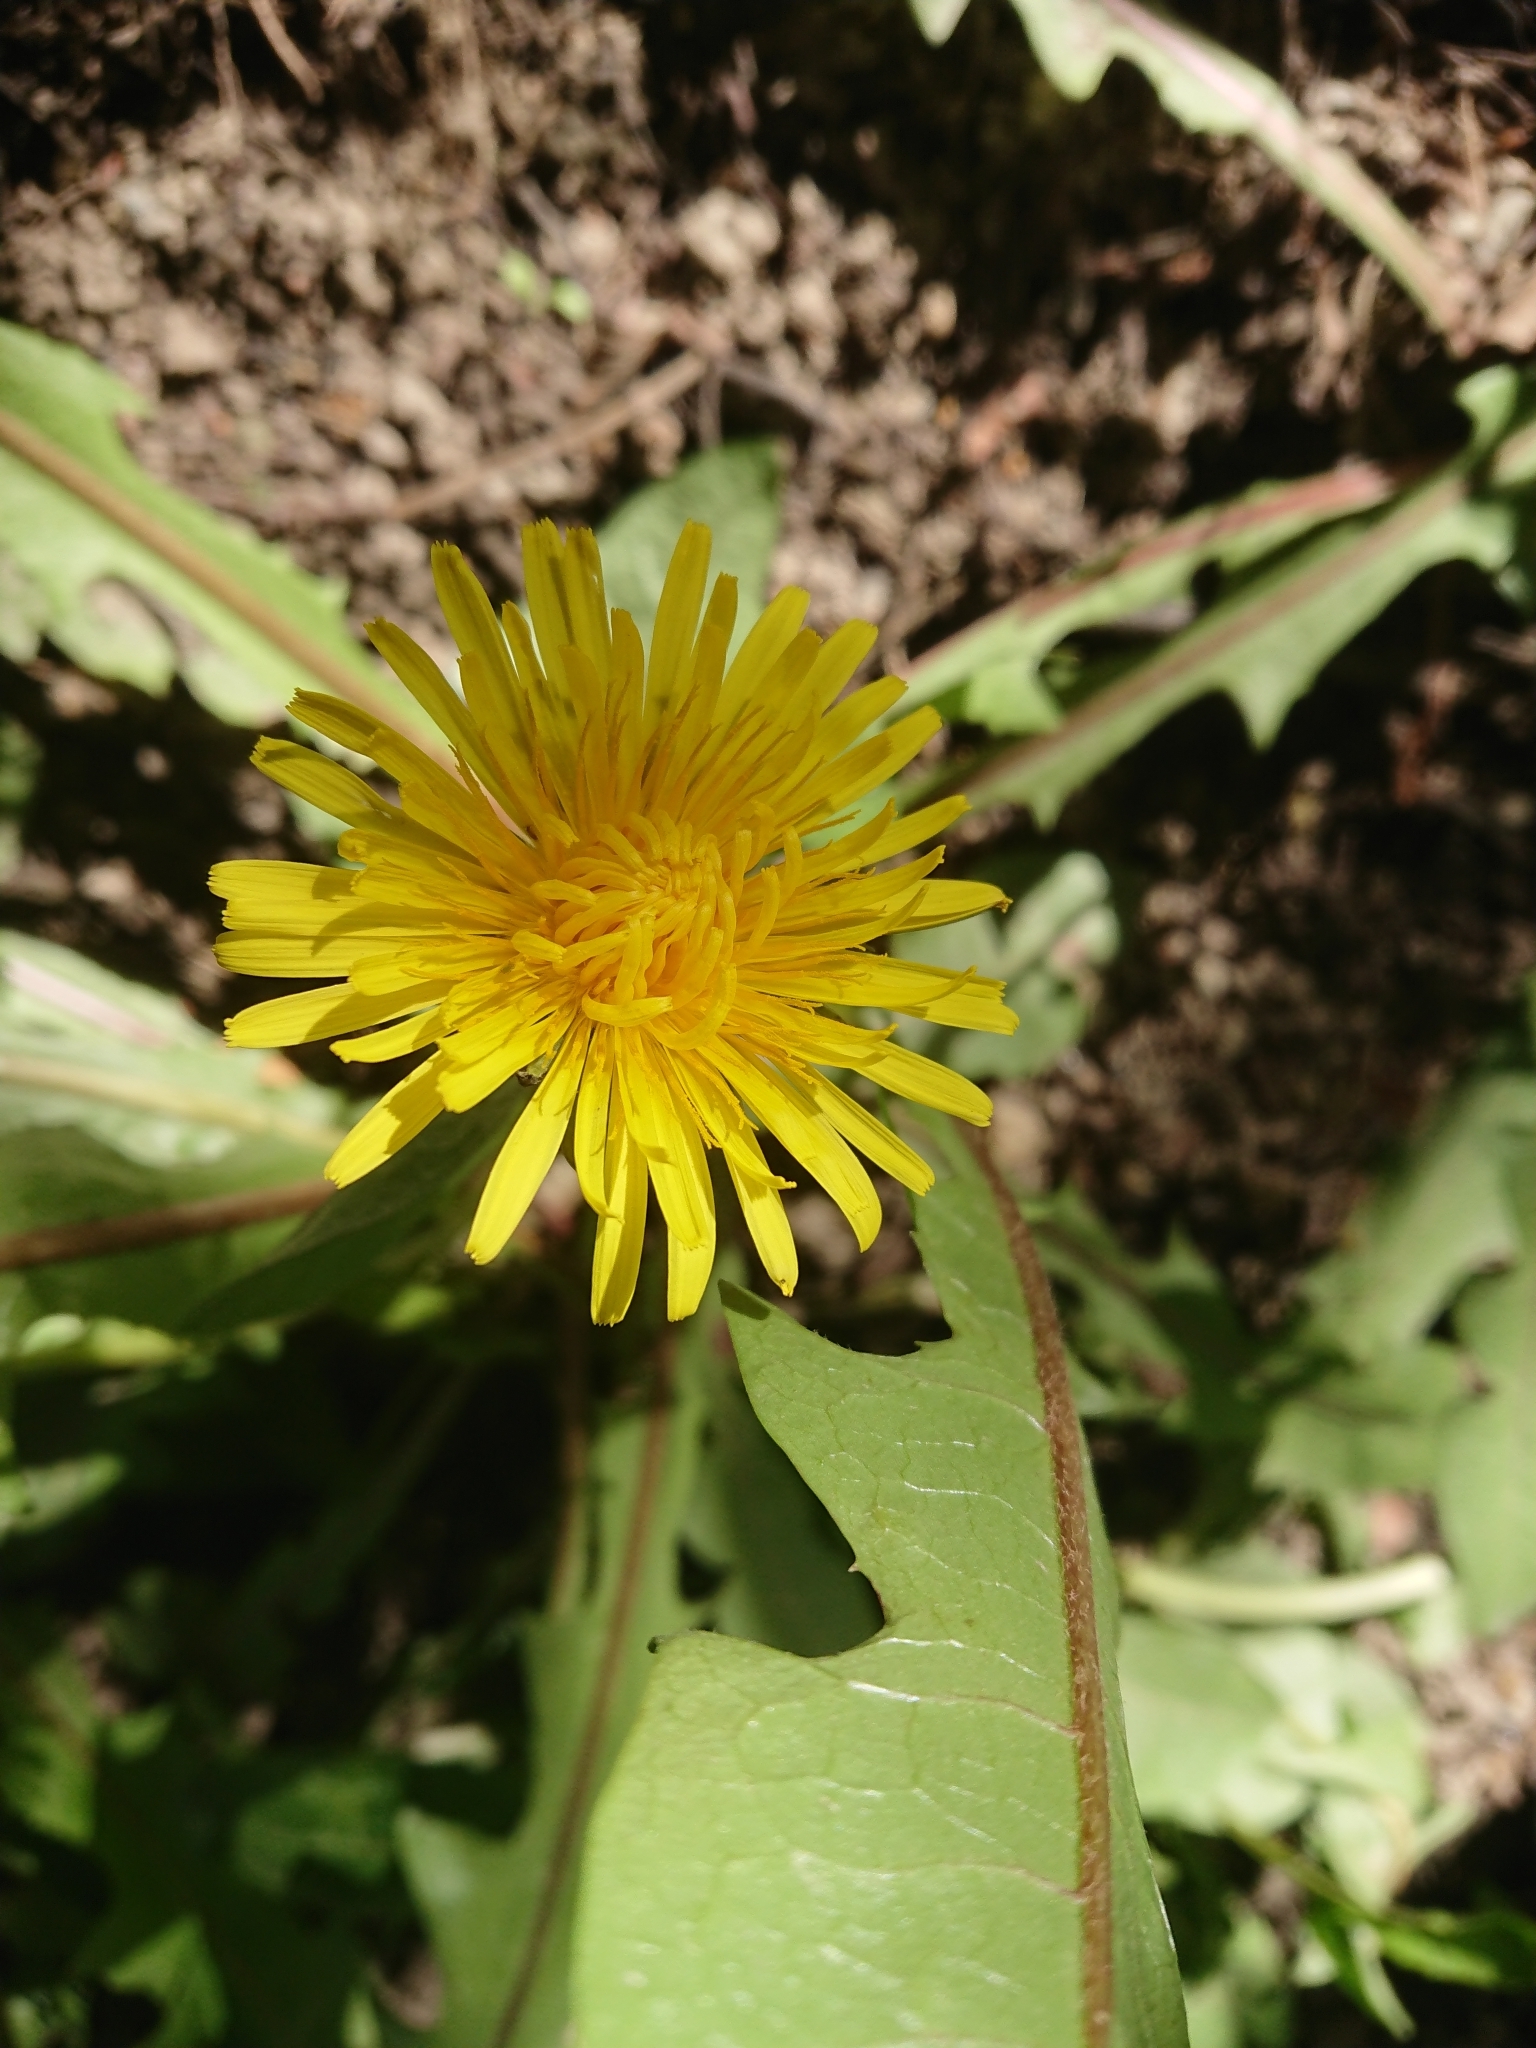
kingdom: Plantae
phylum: Tracheophyta
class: Magnoliopsida
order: Asterales
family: Asteraceae
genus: Taraxacum
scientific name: Taraxacum officinale
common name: Common dandelion
